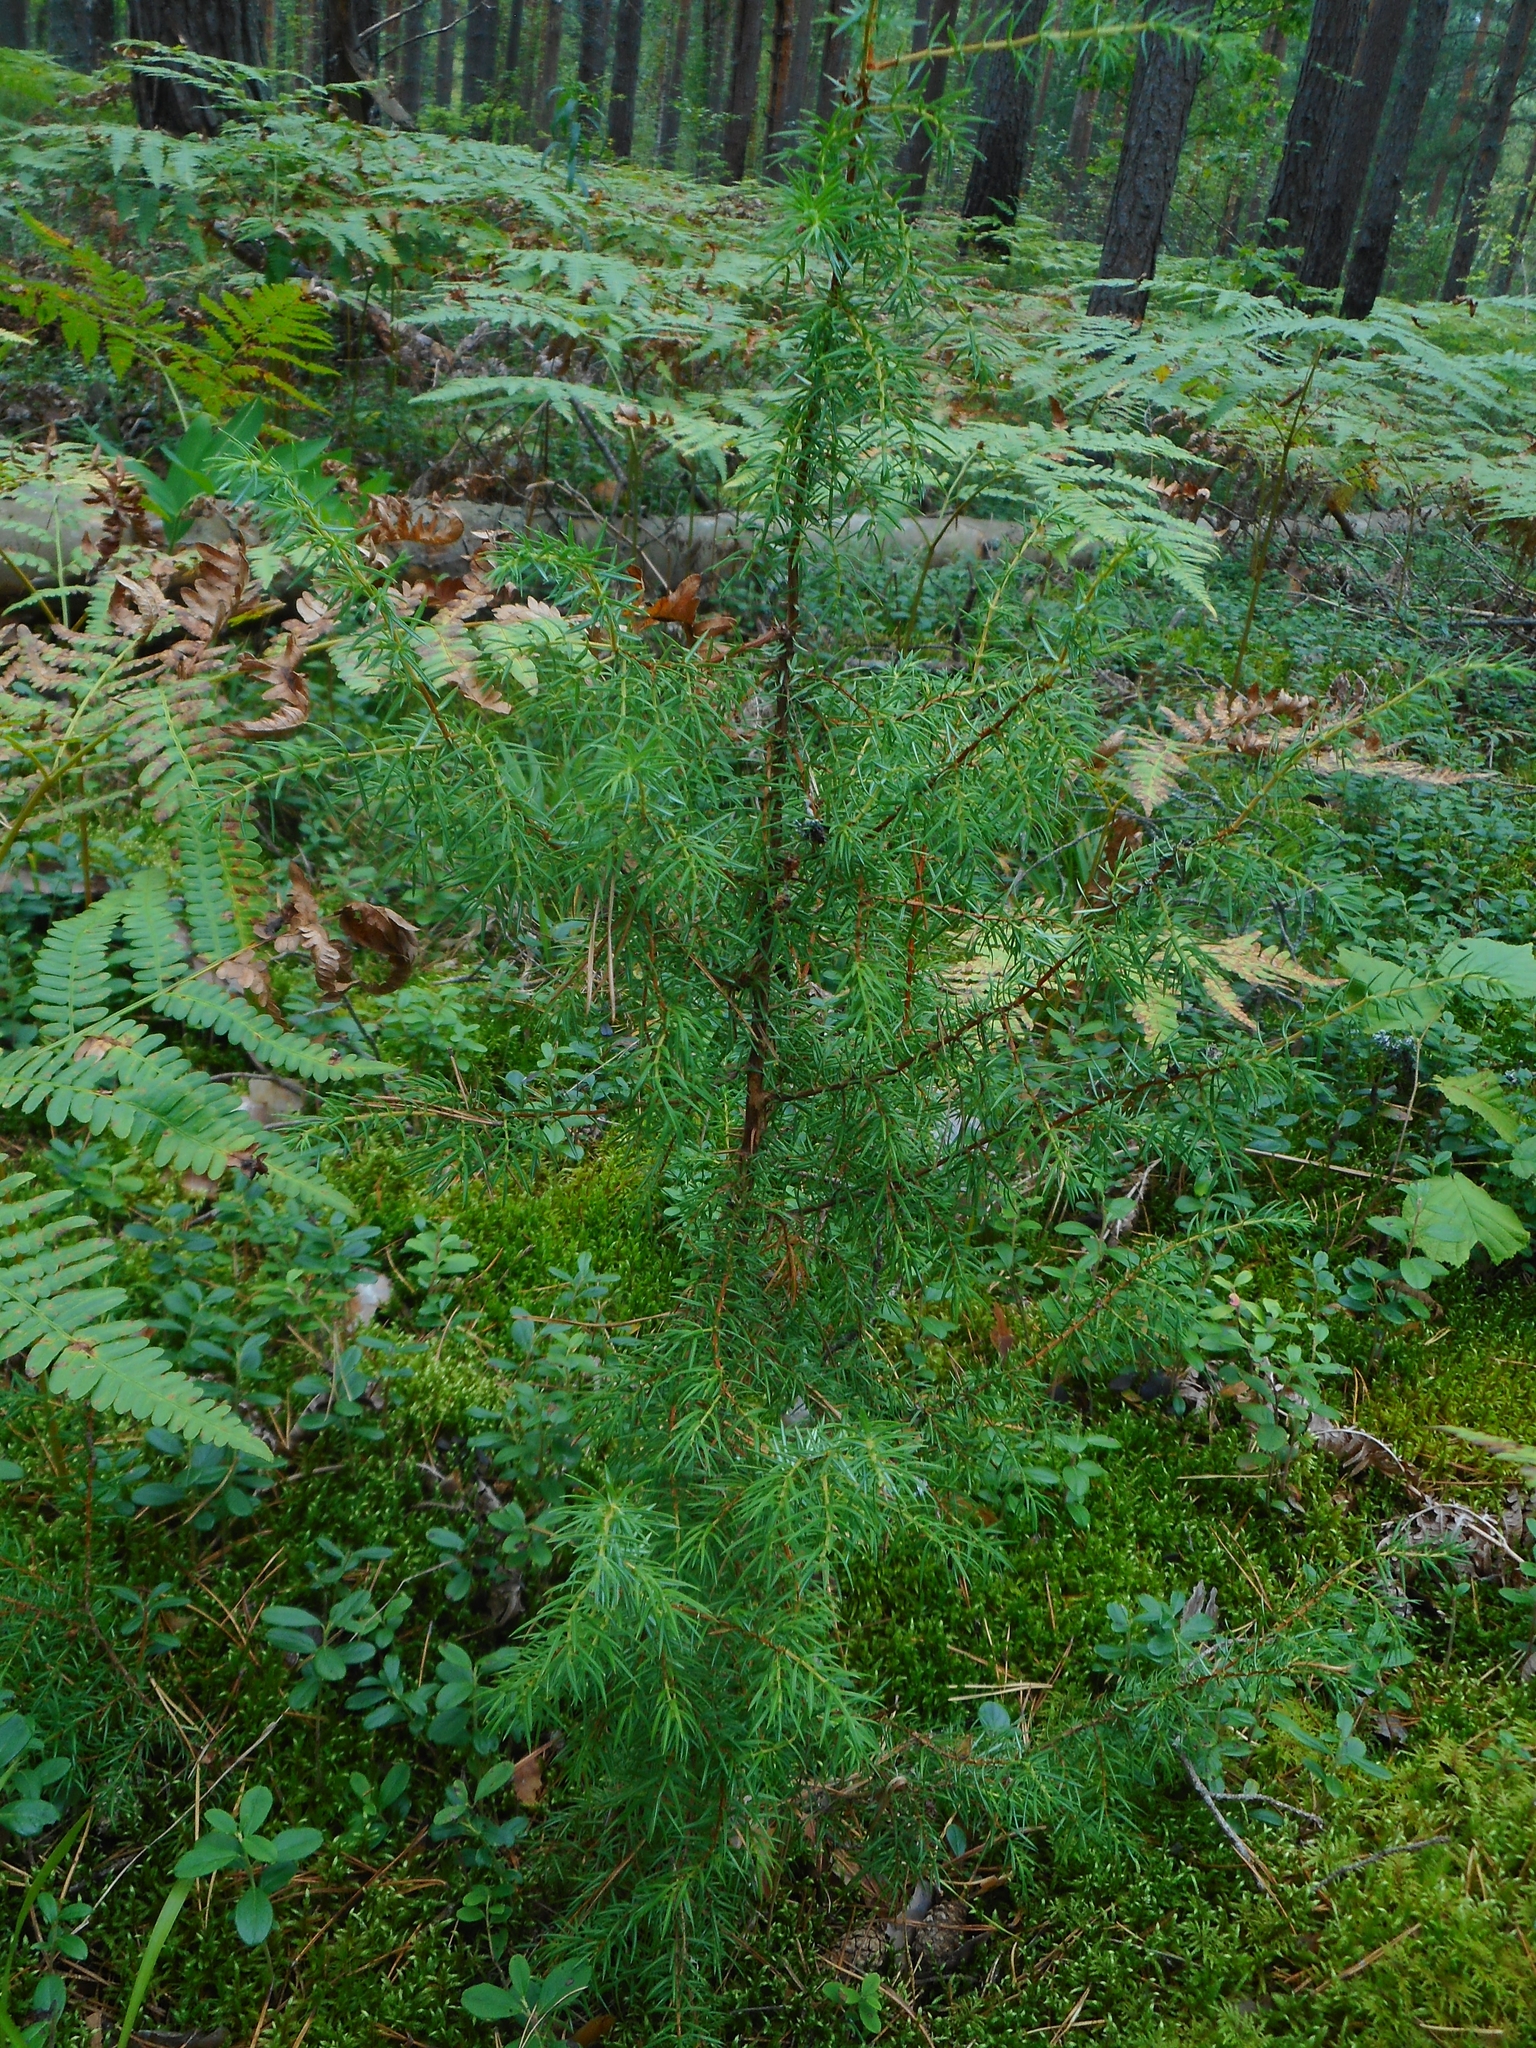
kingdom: Plantae
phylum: Tracheophyta
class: Pinopsida
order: Pinales
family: Cupressaceae
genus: Juniperus
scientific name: Juniperus communis
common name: Common juniper
